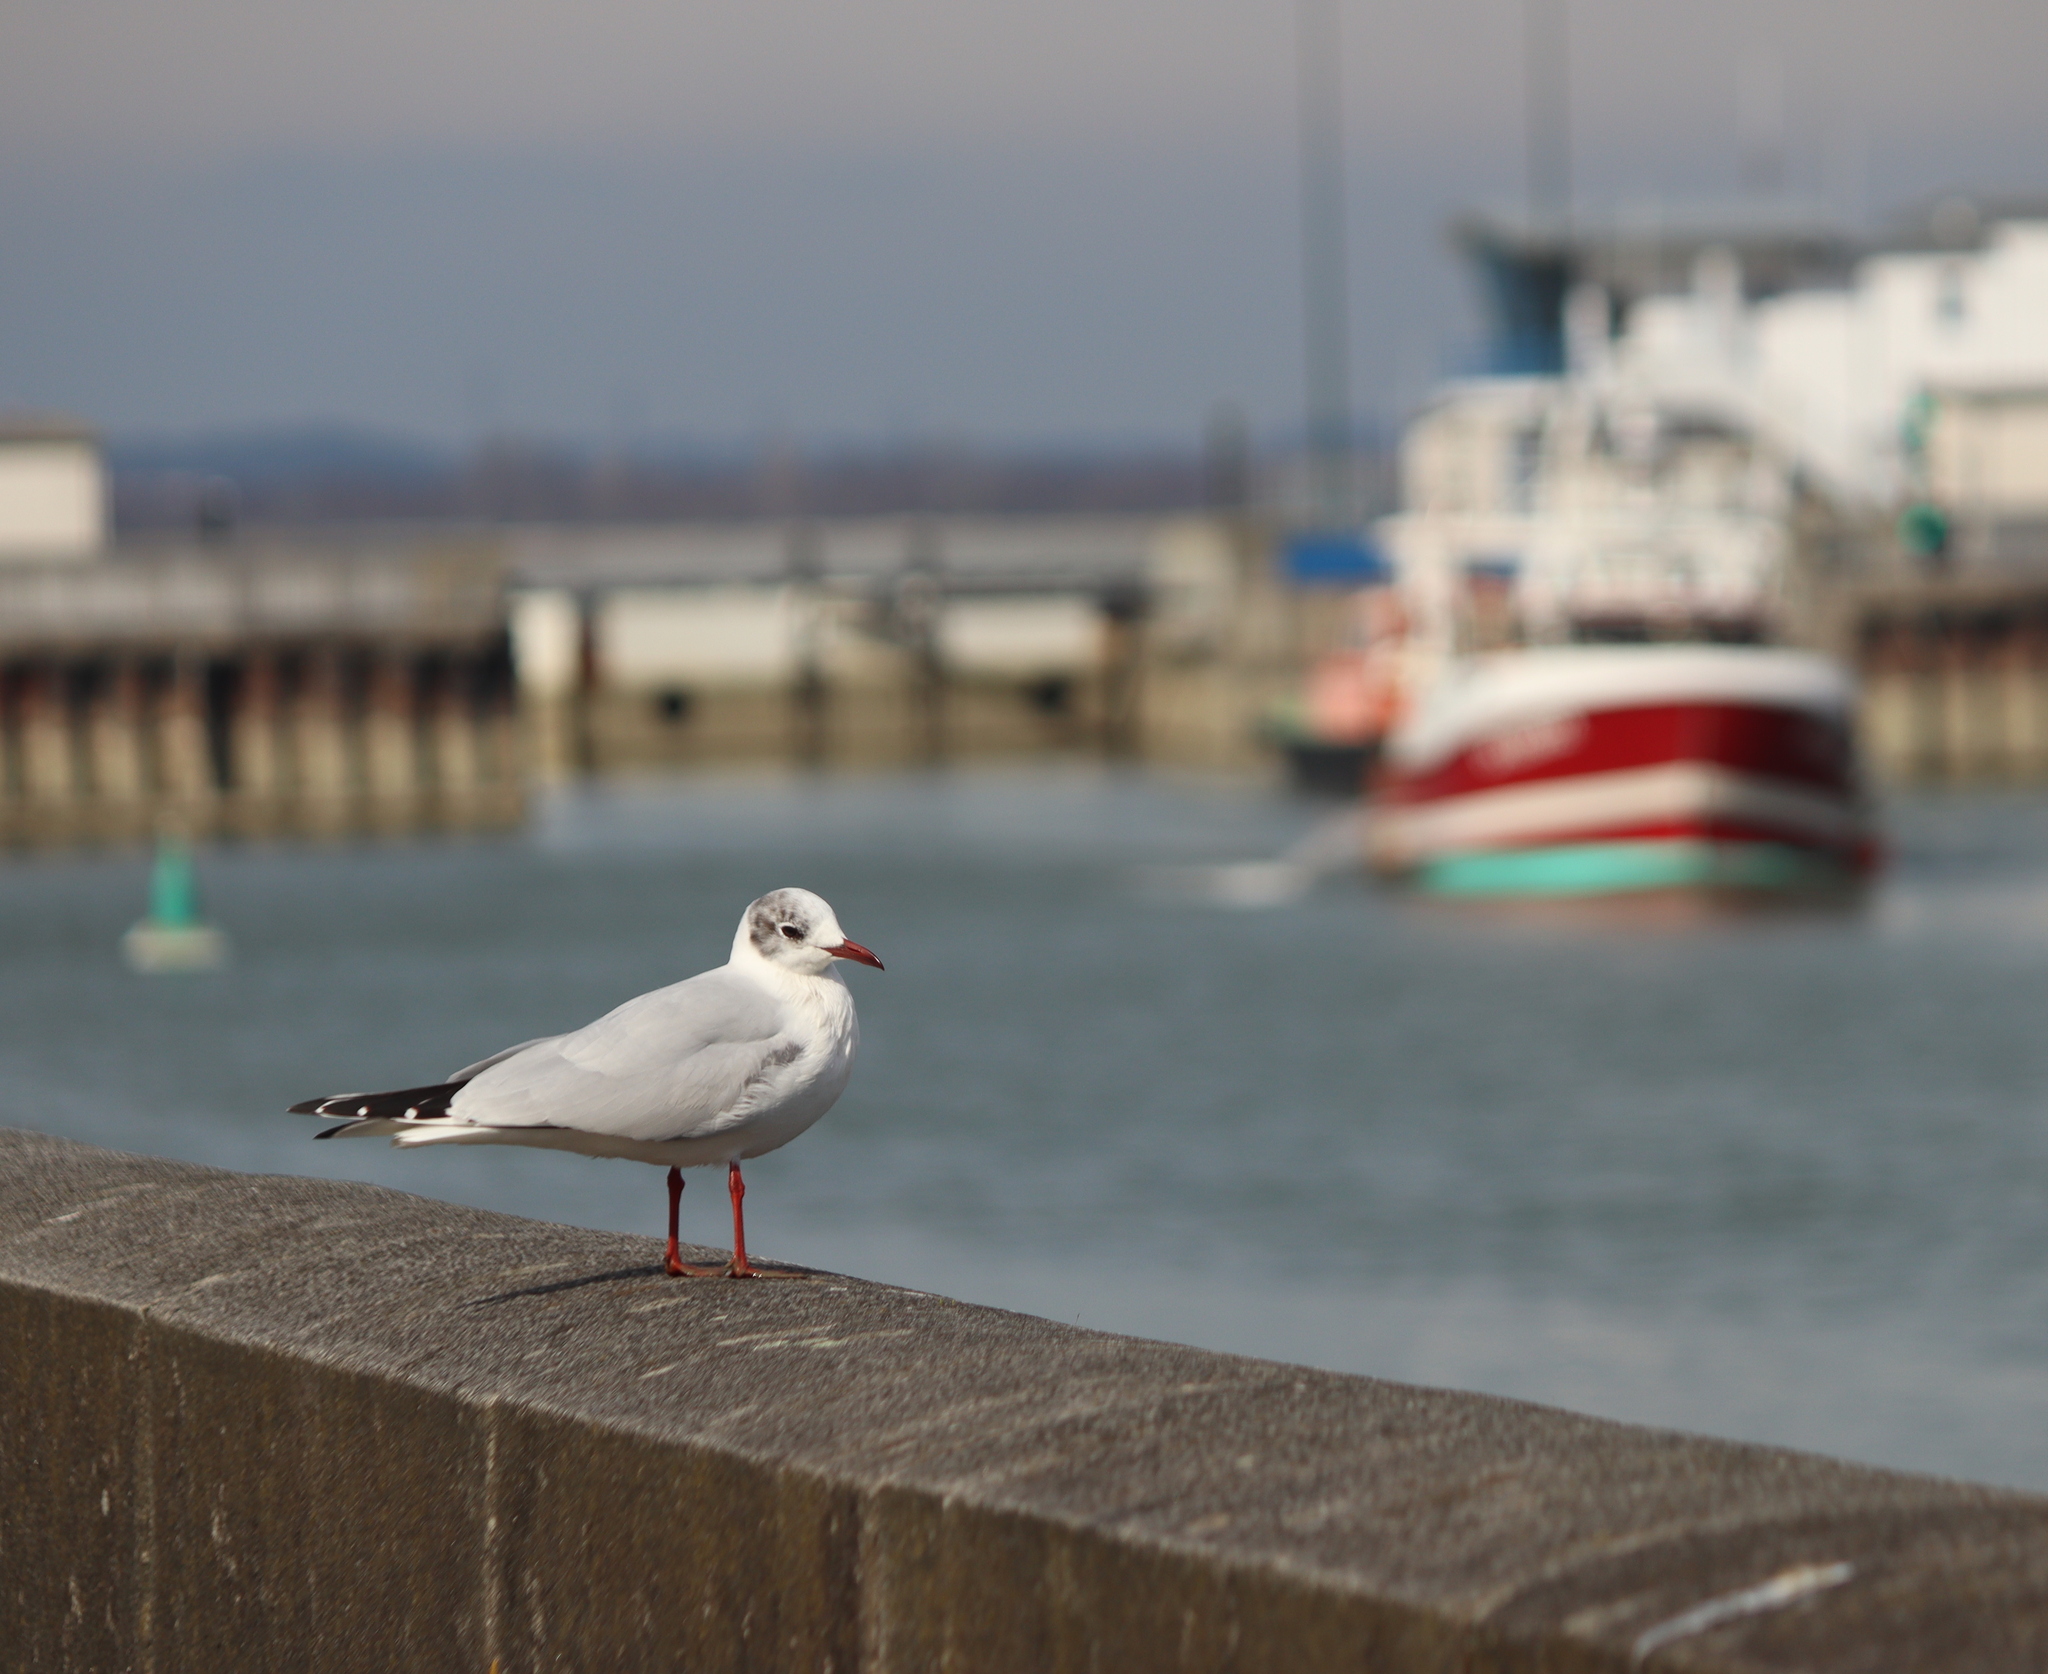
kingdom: Animalia
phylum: Chordata
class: Aves
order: Charadriiformes
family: Laridae
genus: Chroicocephalus
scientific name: Chroicocephalus ridibundus
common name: Black-headed gull
